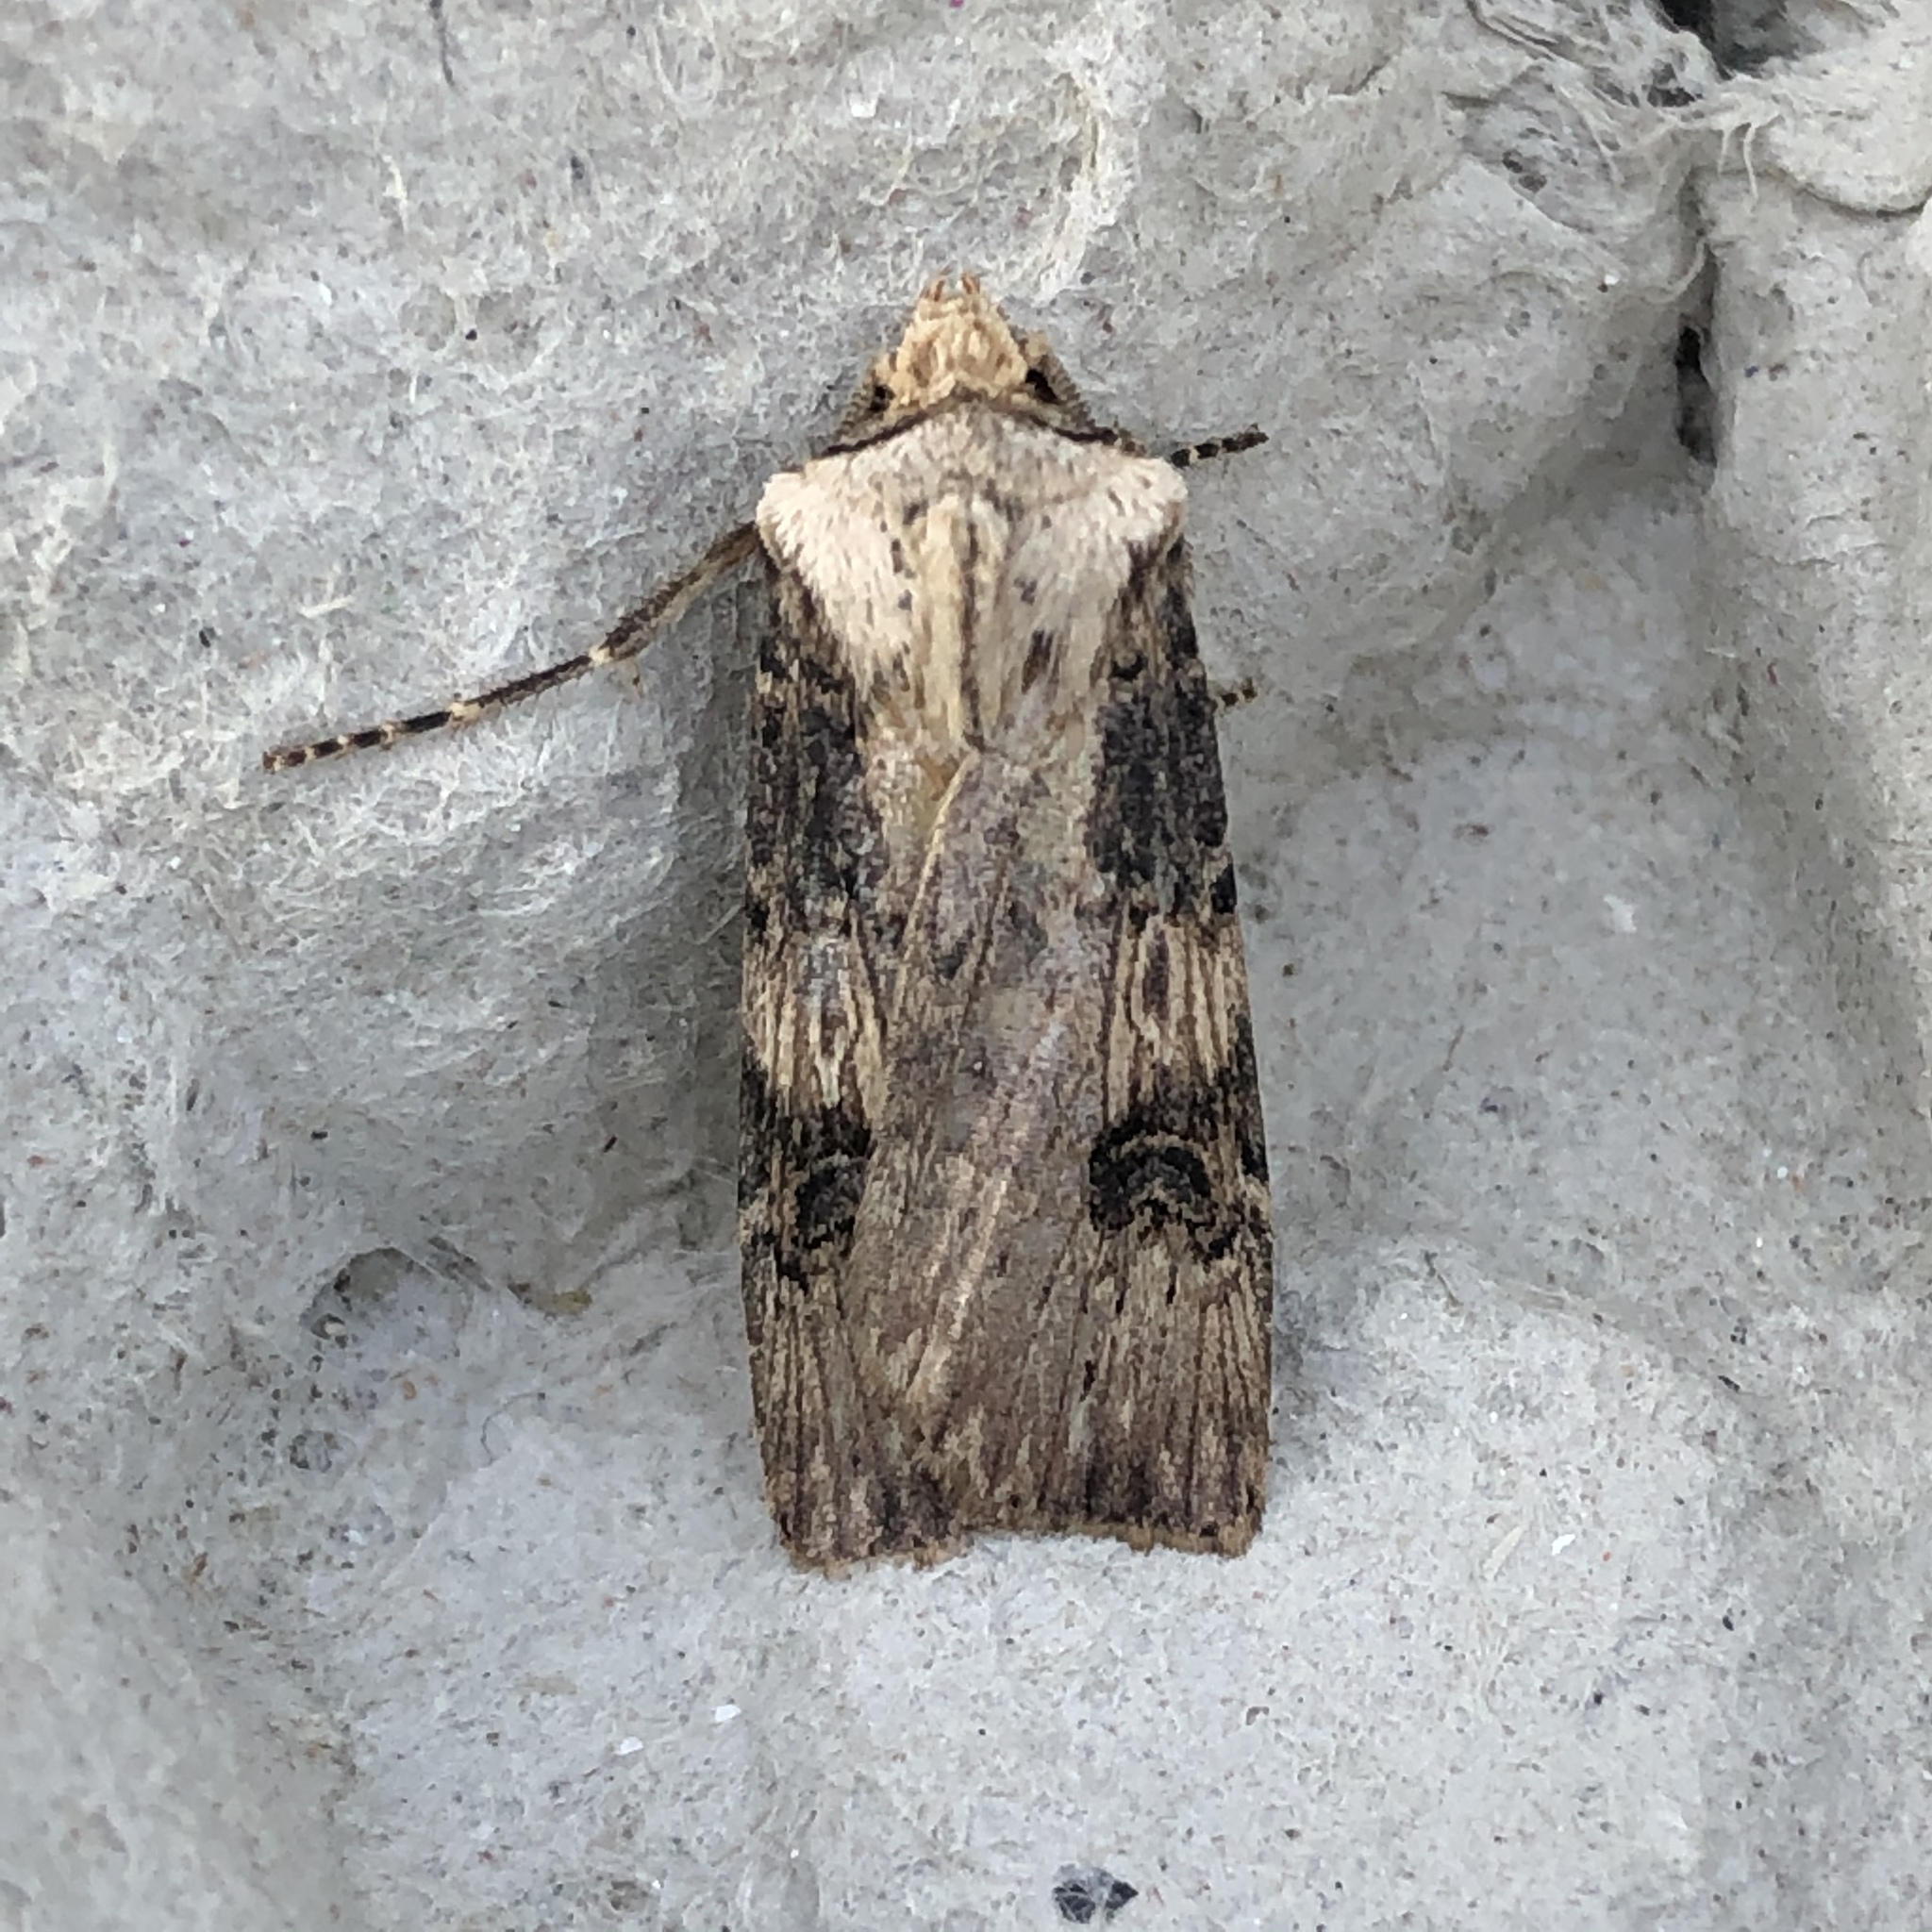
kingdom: Animalia
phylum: Arthropoda
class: Insecta
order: Lepidoptera
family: Noctuidae
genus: Agrotis
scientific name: Agrotis puta
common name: Shuttle-shaped dart
